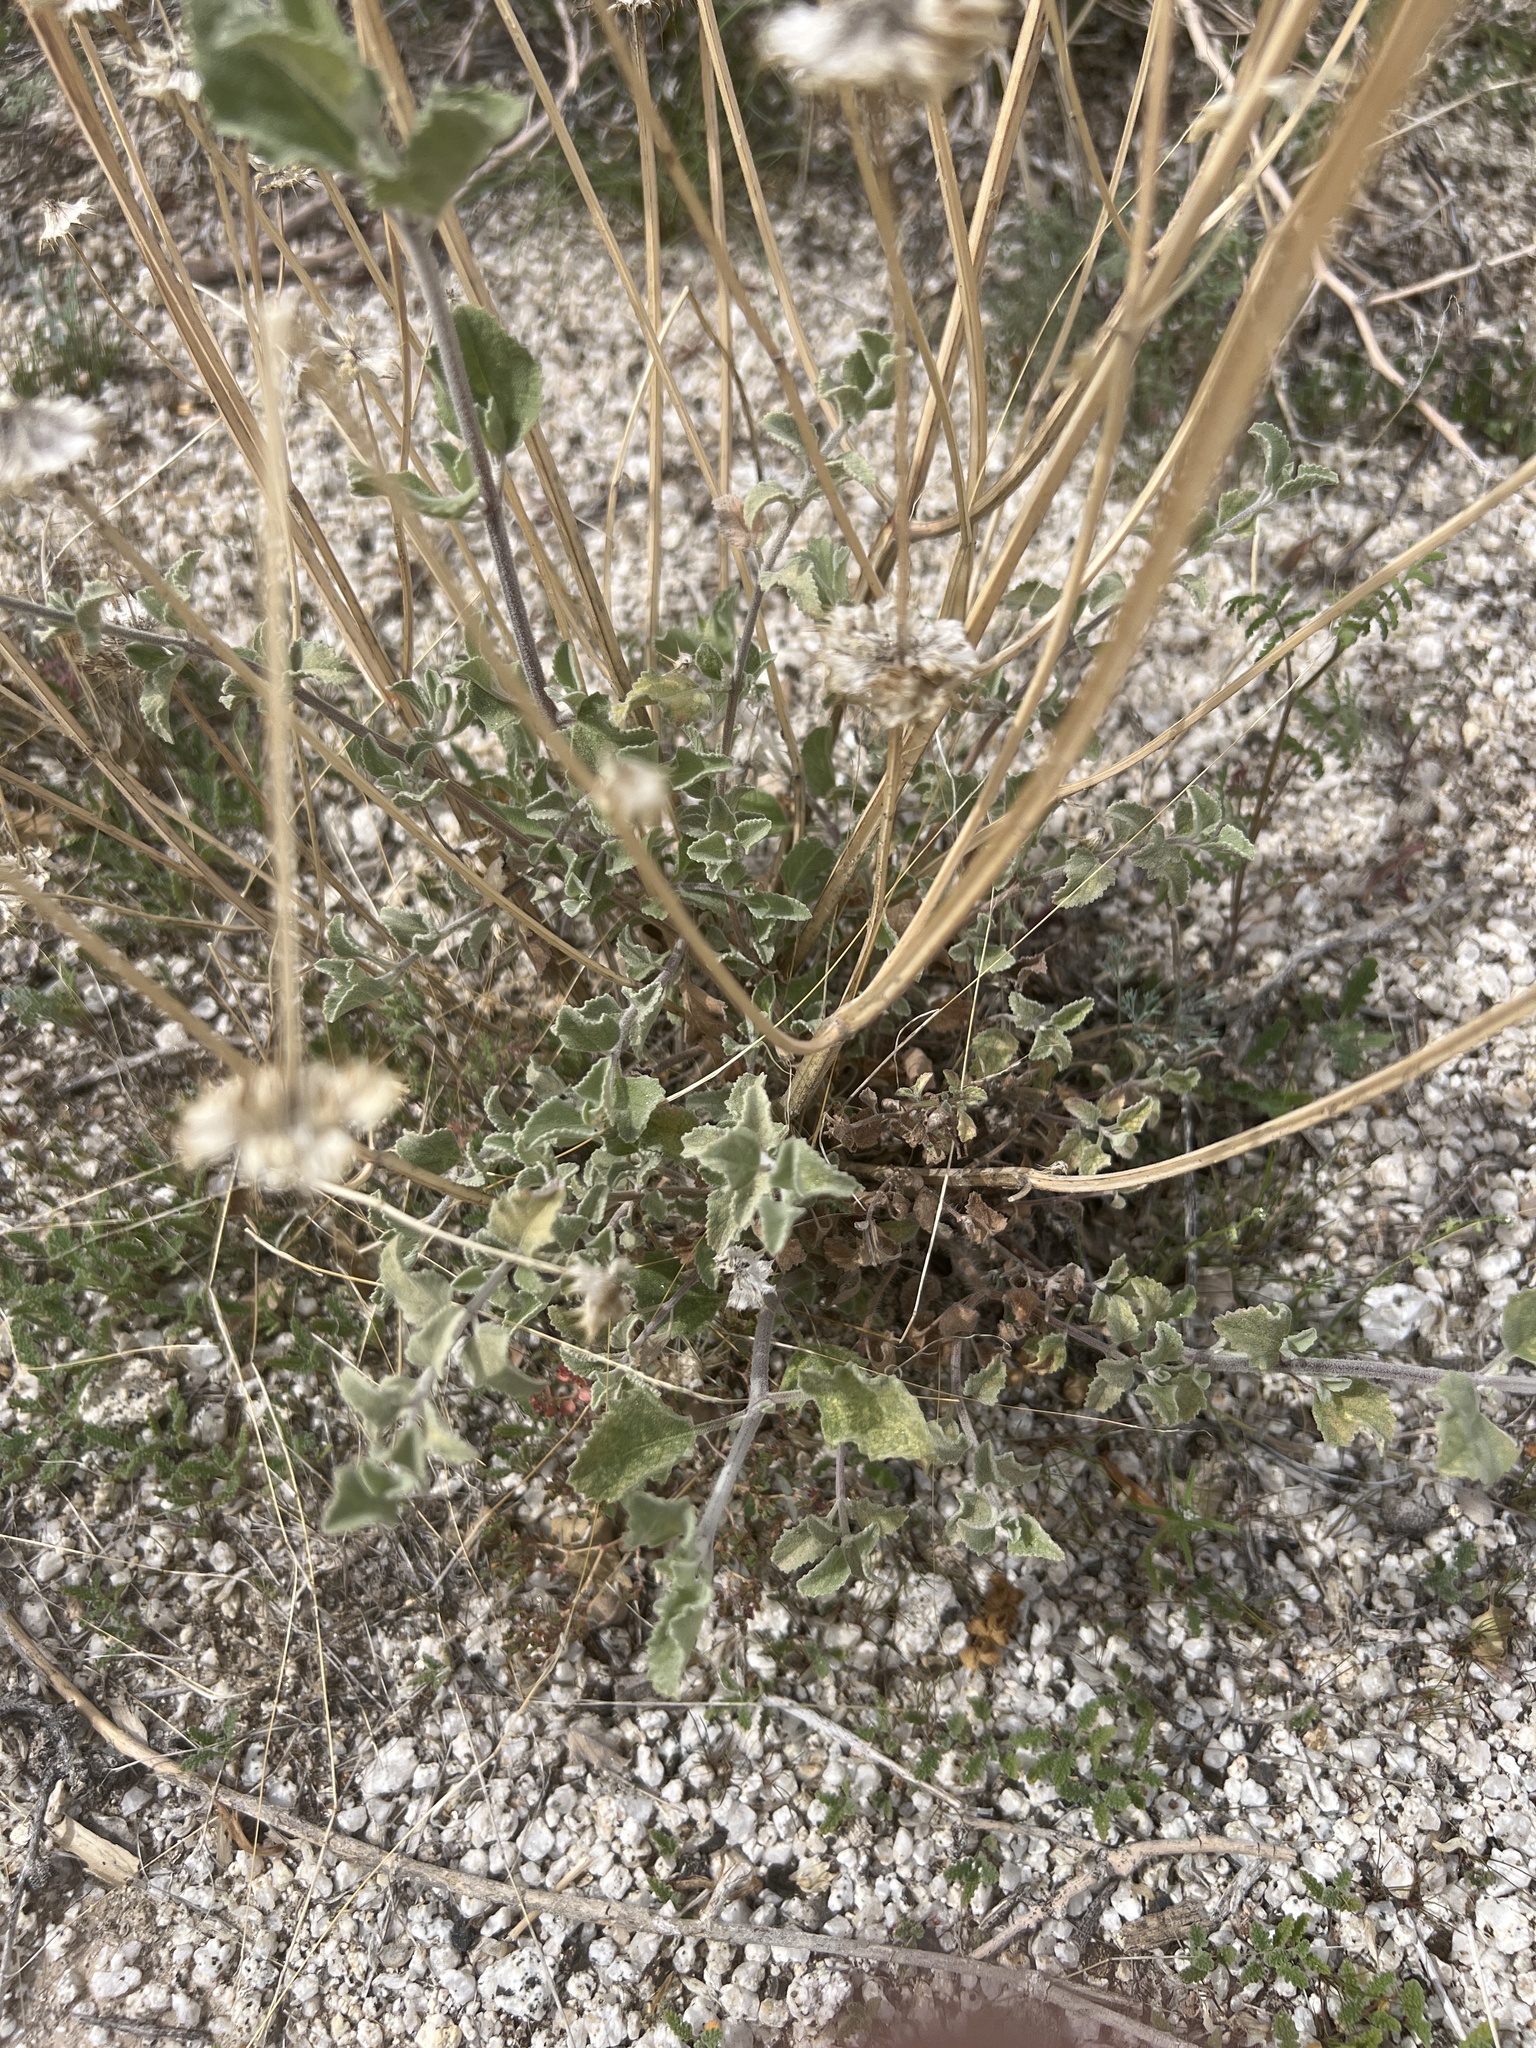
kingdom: Plantae
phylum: Tracheophyta
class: Magnoliopsida
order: Lamiales
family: Lamiaceae
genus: Salvia
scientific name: Salvia columbariae
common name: Chia
